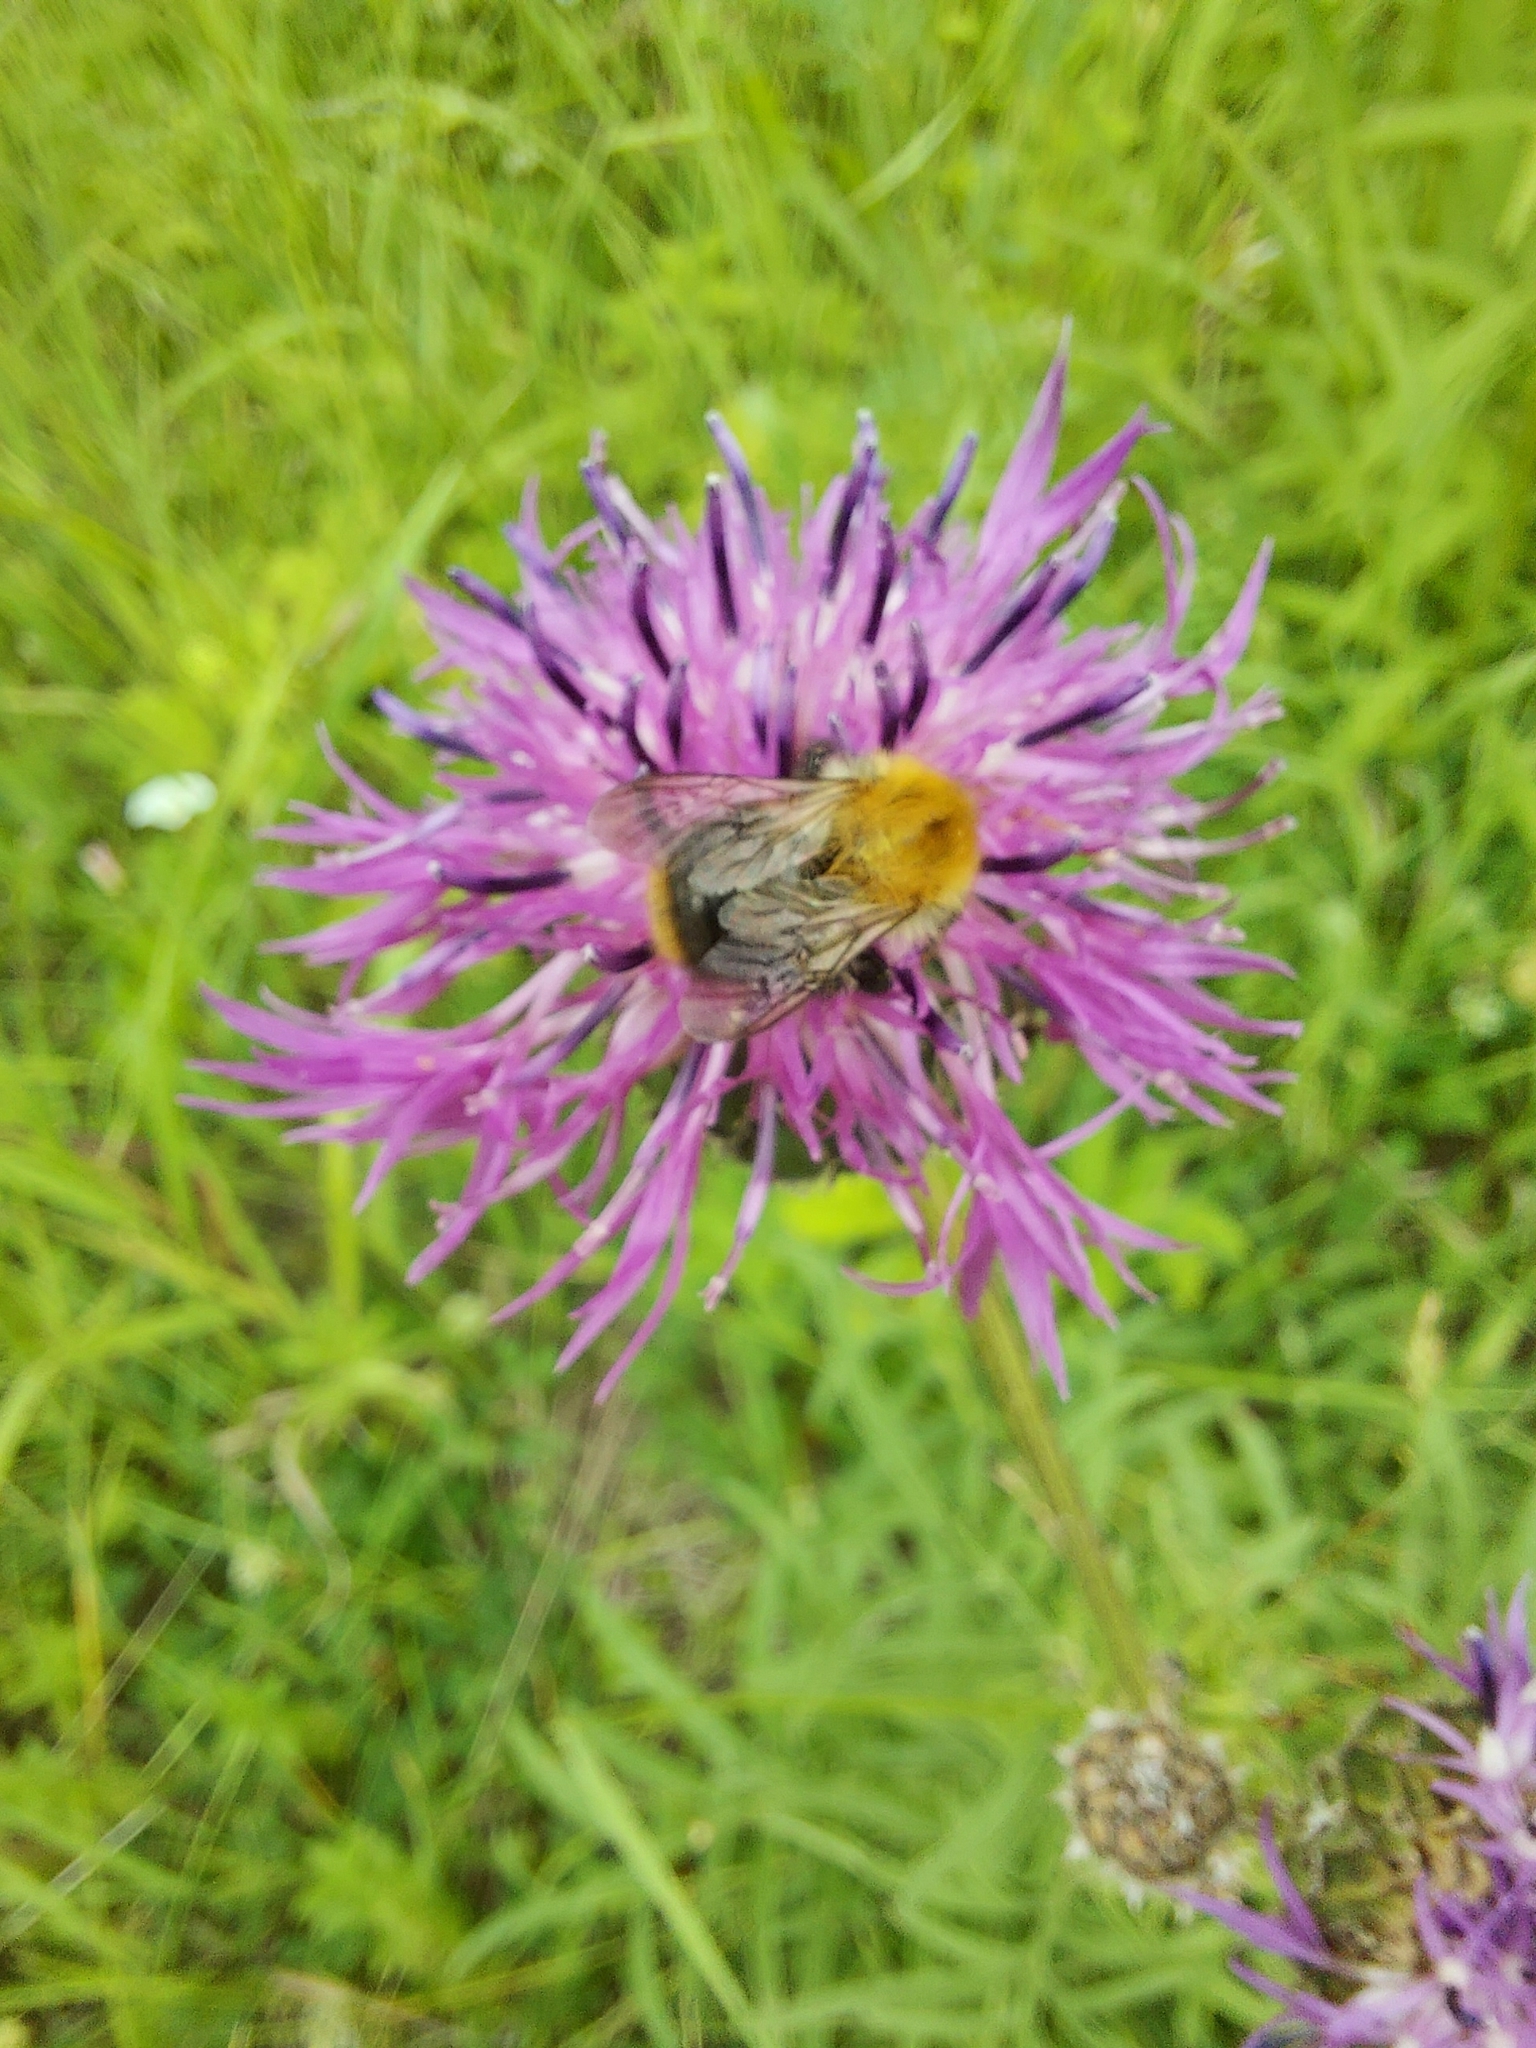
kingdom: Animalia
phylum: Arthropoda
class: Insecta
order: Hymenoptera
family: Apidae
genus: Bombus
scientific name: Bombus pascuorum
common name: Common carder bee
